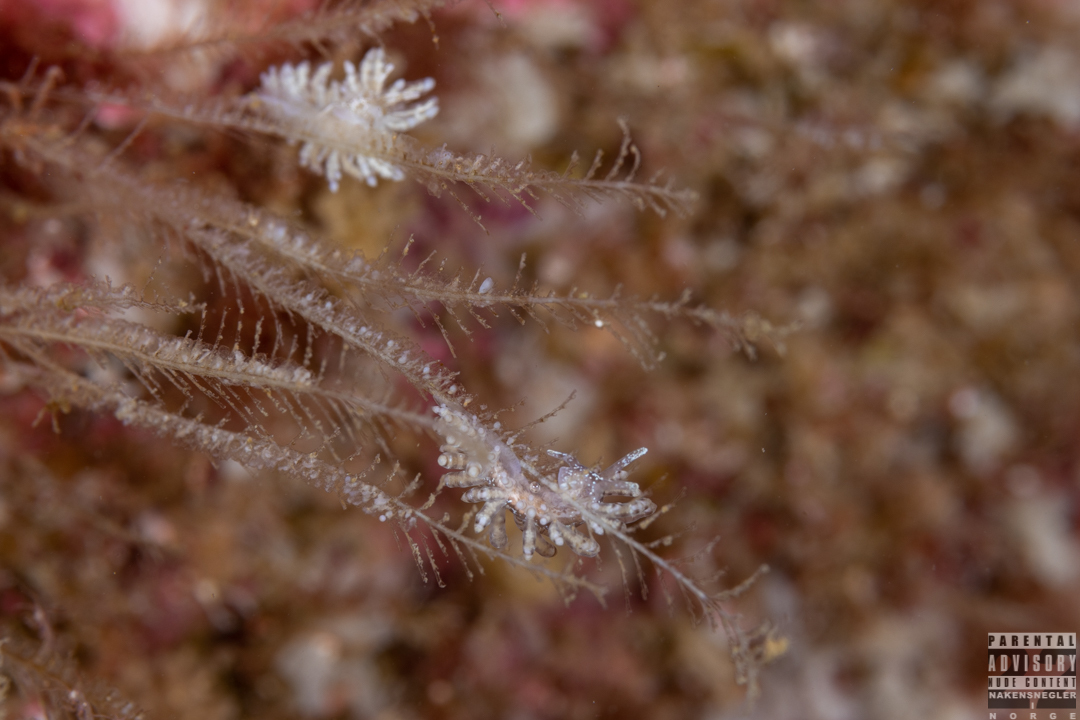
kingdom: Animalia
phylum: Mollusca
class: Gastropoda
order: Nudibranchia
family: Eubranchidae
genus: Eubranchus
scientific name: Eubranchus vittatus
